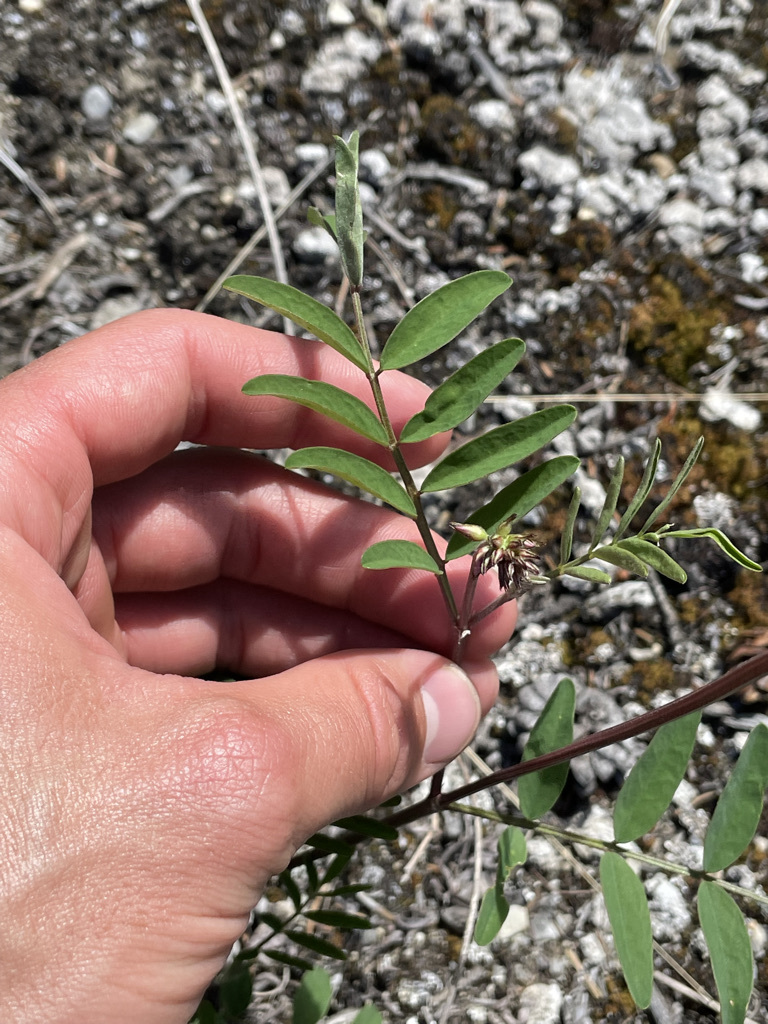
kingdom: Plantae
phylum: Tracheophyta
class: Magnoliopsida
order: Fabales
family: Fabaceae
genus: Hedysarum
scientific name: Hedysarum boreale
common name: Northern sweet-vetch
